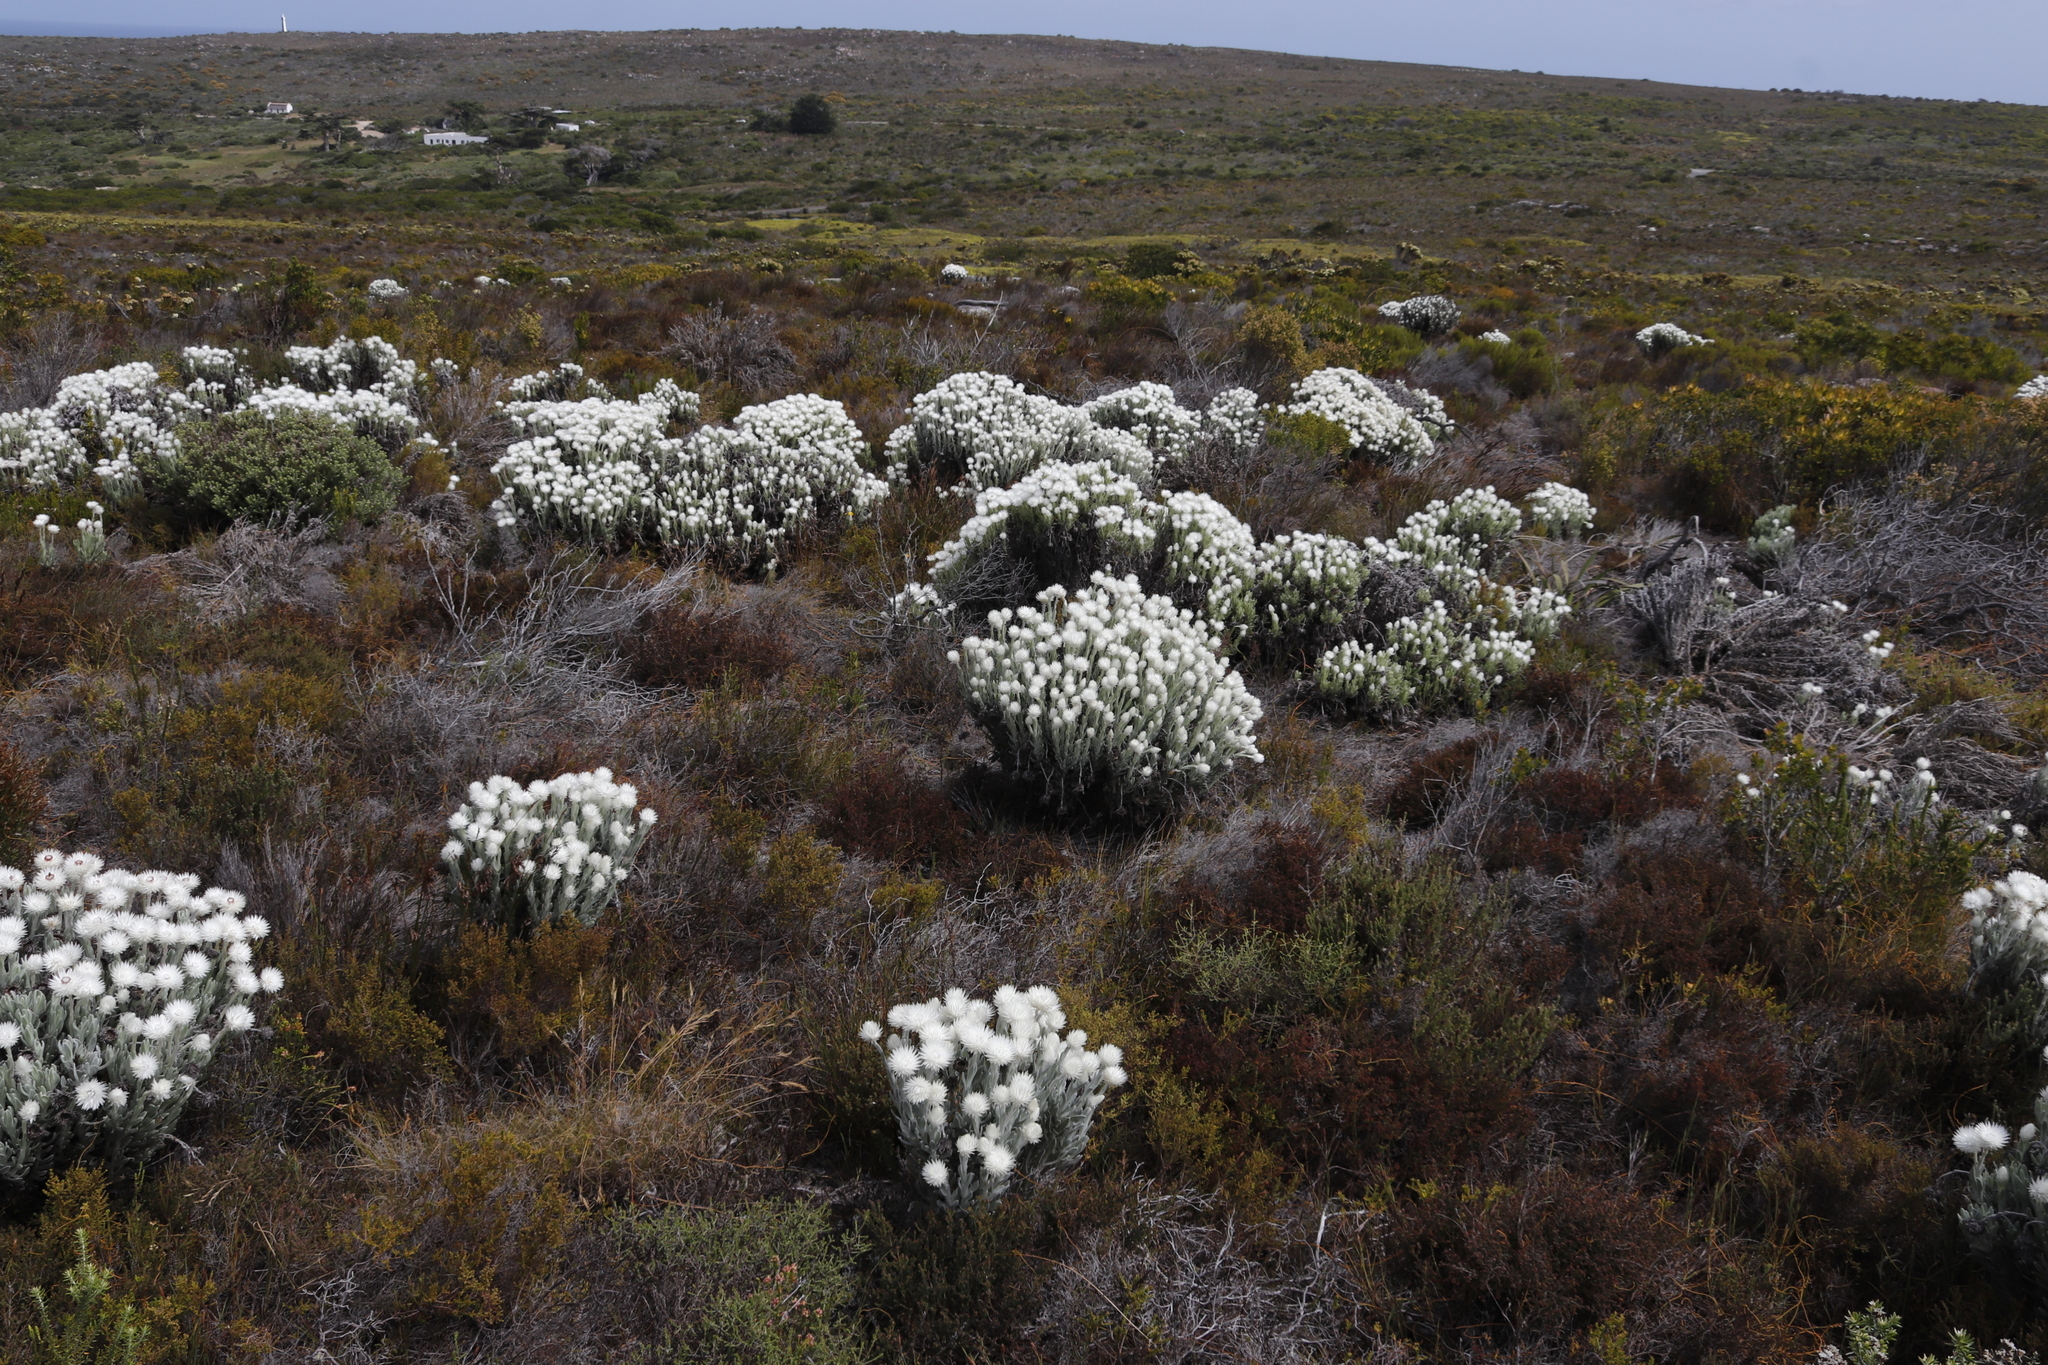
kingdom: Plantae
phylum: Tracheophyta
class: Magnoliopsida
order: Asterales
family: Asteraceae
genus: Syncarpha
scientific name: Syncarpha vestita
